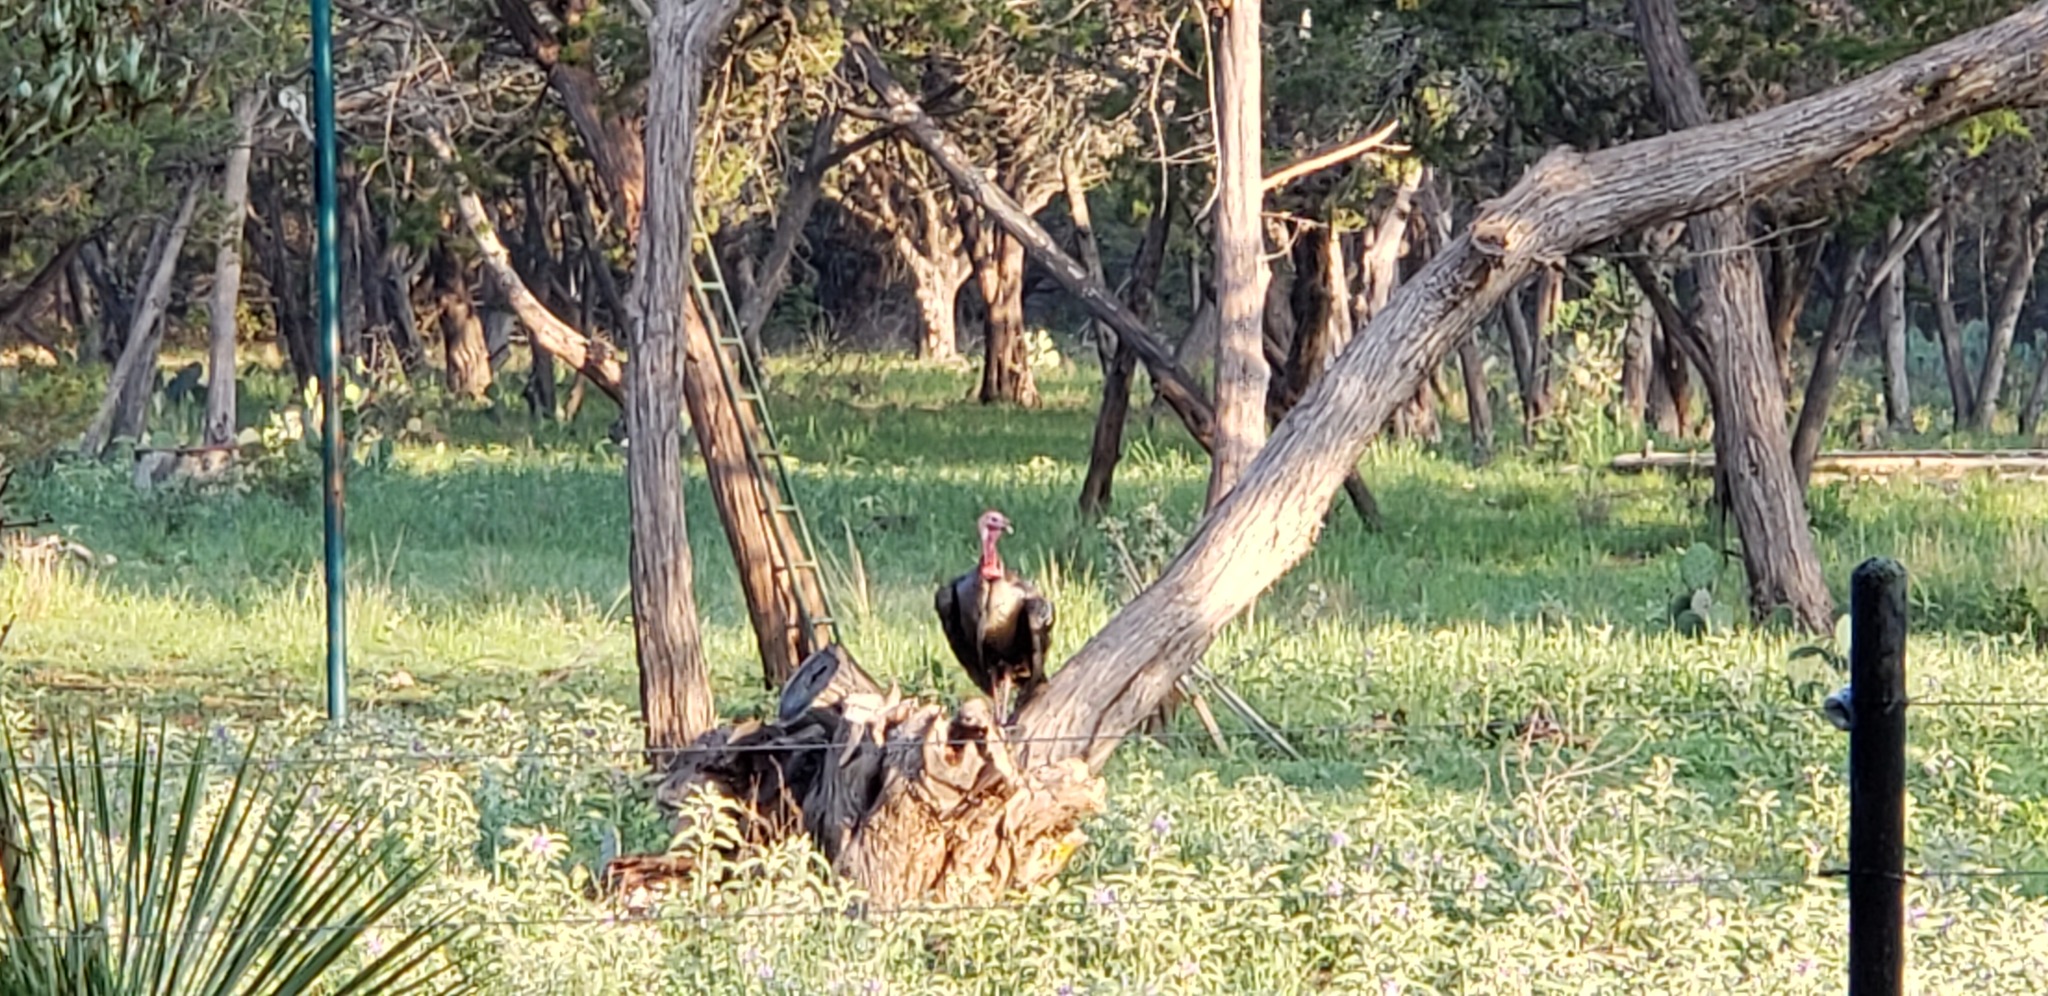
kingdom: Animalia
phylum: Chordata
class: Aves
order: Galliformes
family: Phasianidae
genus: Meleagris
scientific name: Meleagris gallopavo
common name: Wild turkey
